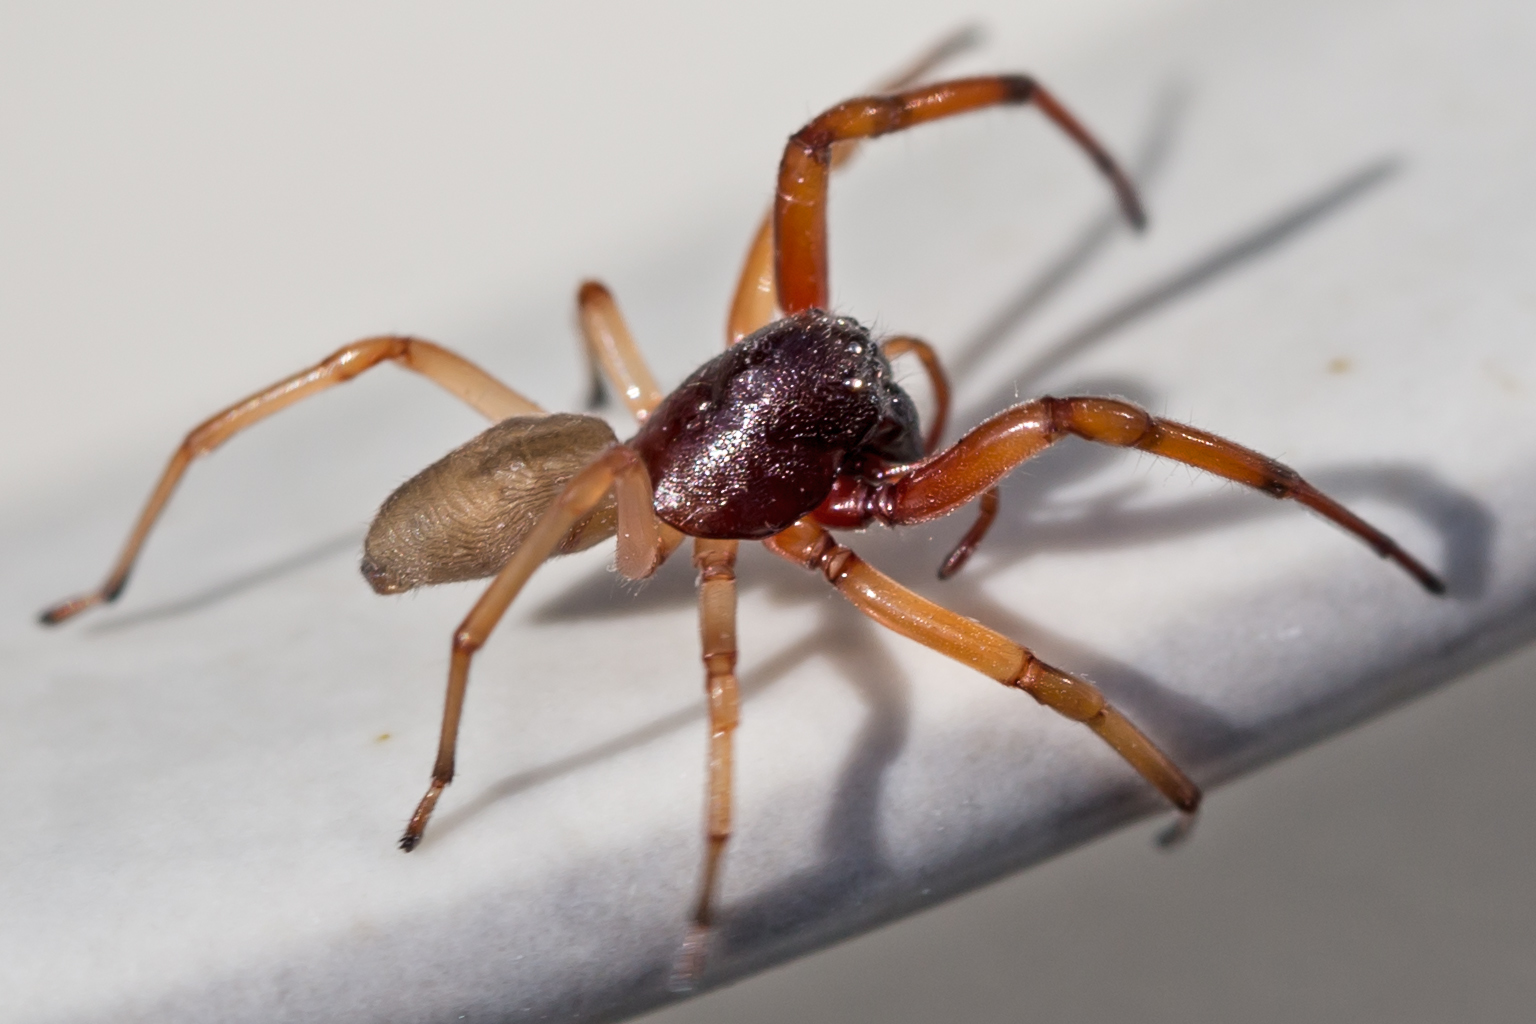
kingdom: Animalia
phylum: Arthropoda
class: Arachnida
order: Araneae
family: Trachelidae
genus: Trachelas
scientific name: Trachelas tranquillus
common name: Broad-faced sac spider
